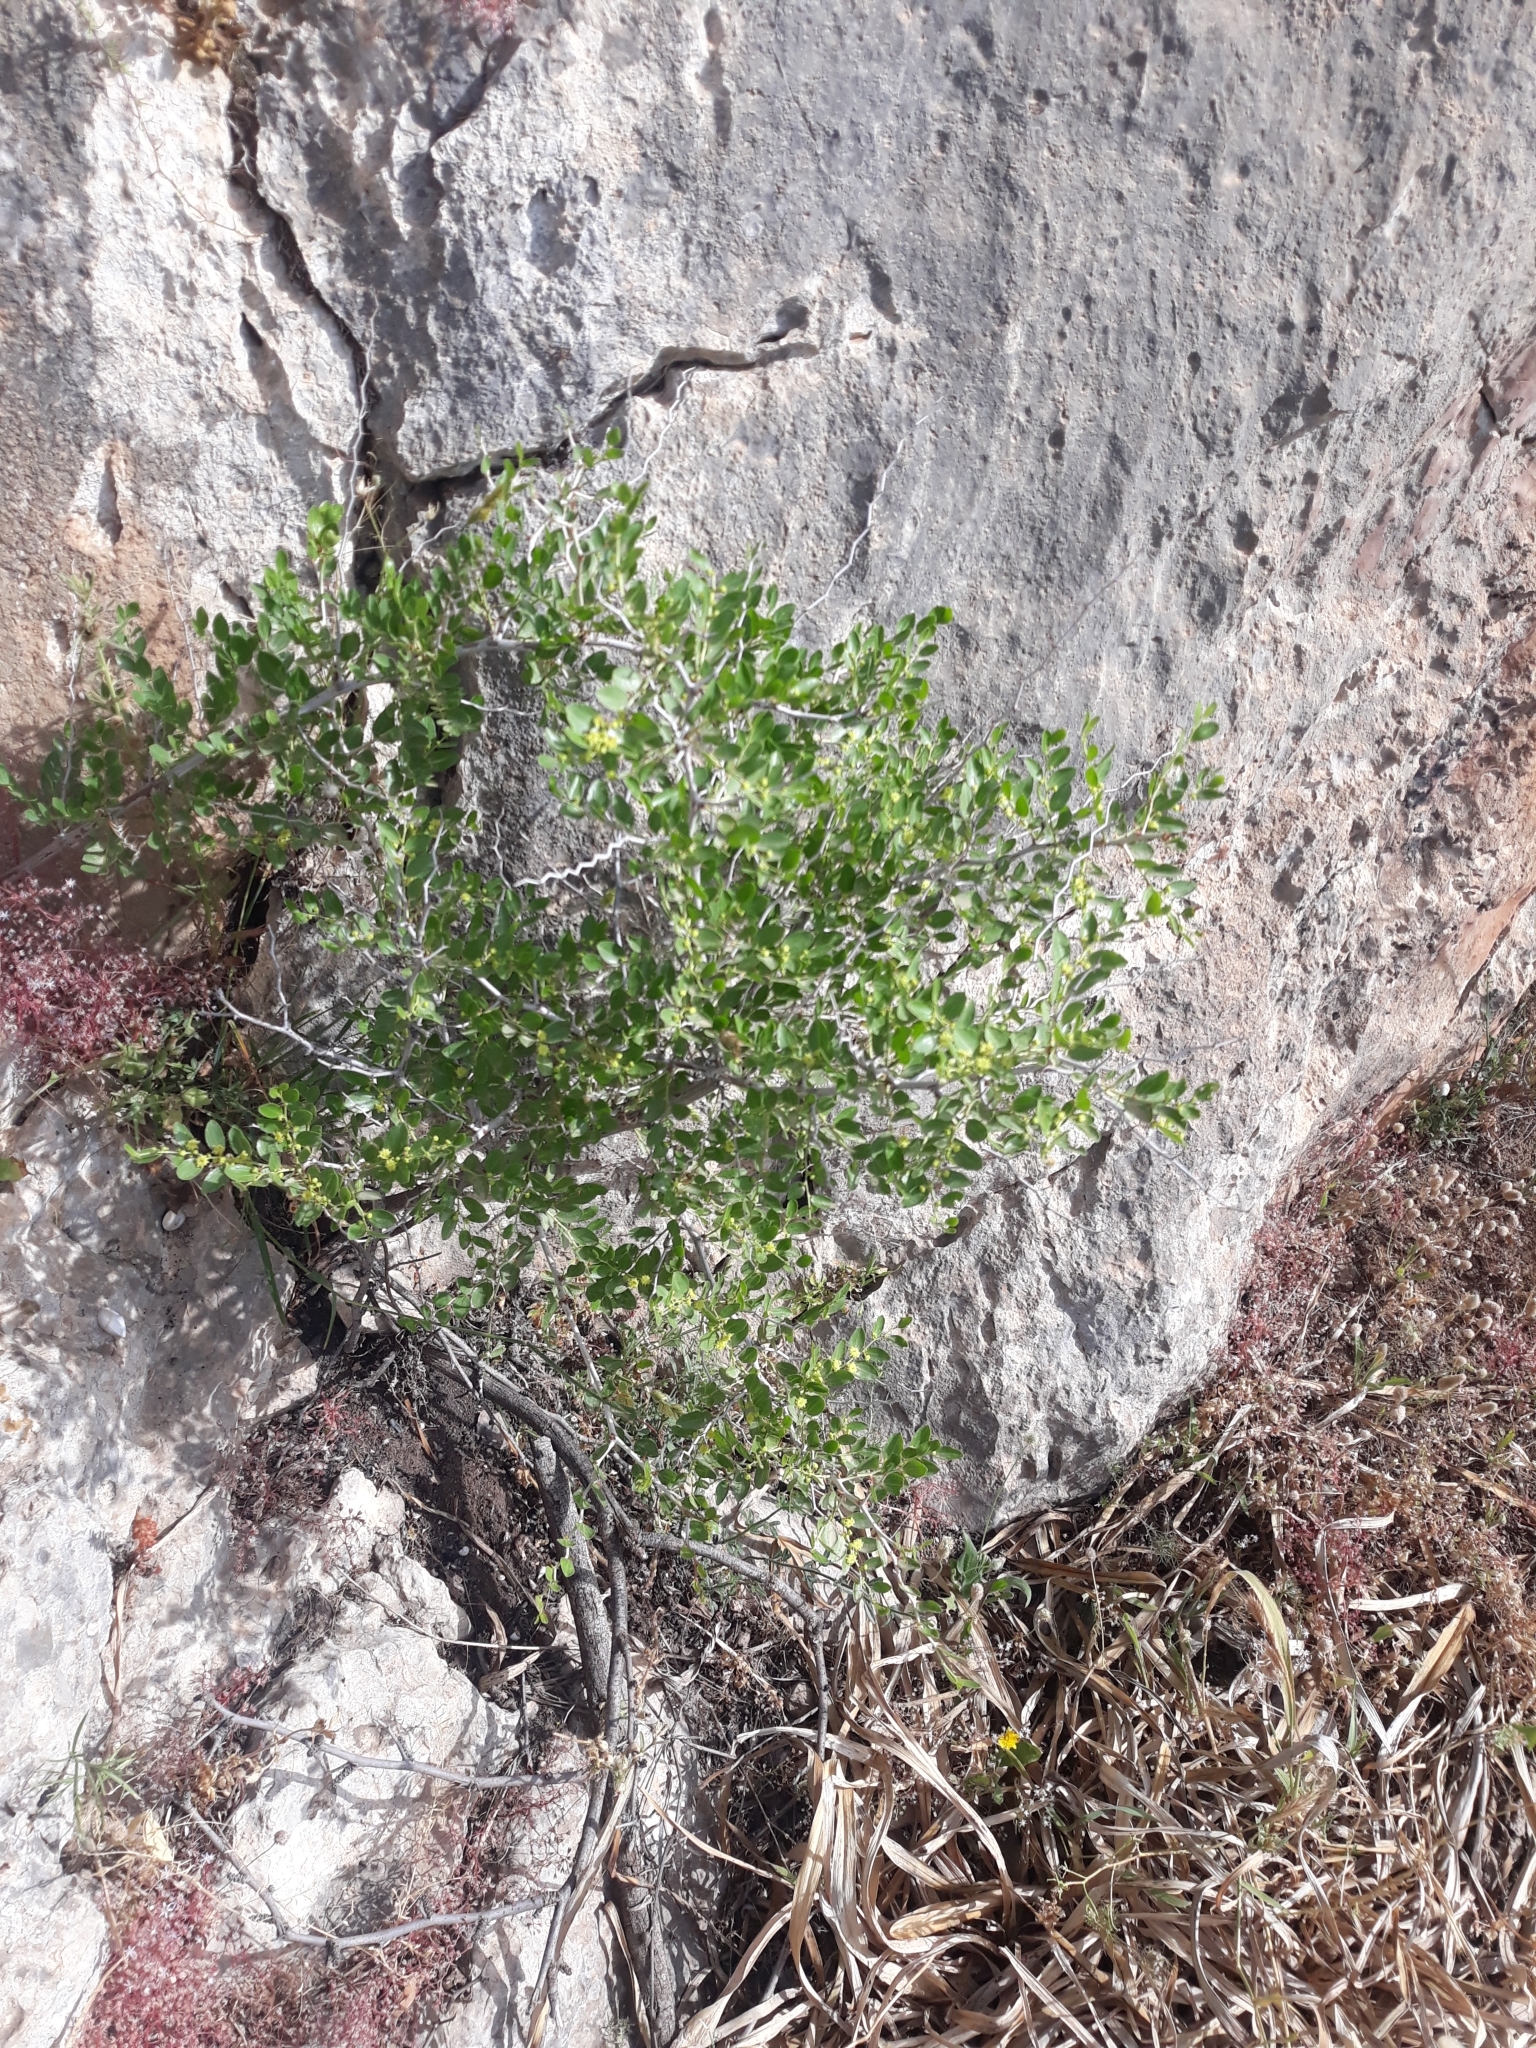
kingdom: Plantae
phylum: Tracheophyta
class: Magnoliopsida
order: Rosales
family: Rhamnaceae
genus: Ziziphus
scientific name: Ziziphus lotus
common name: Lotus
